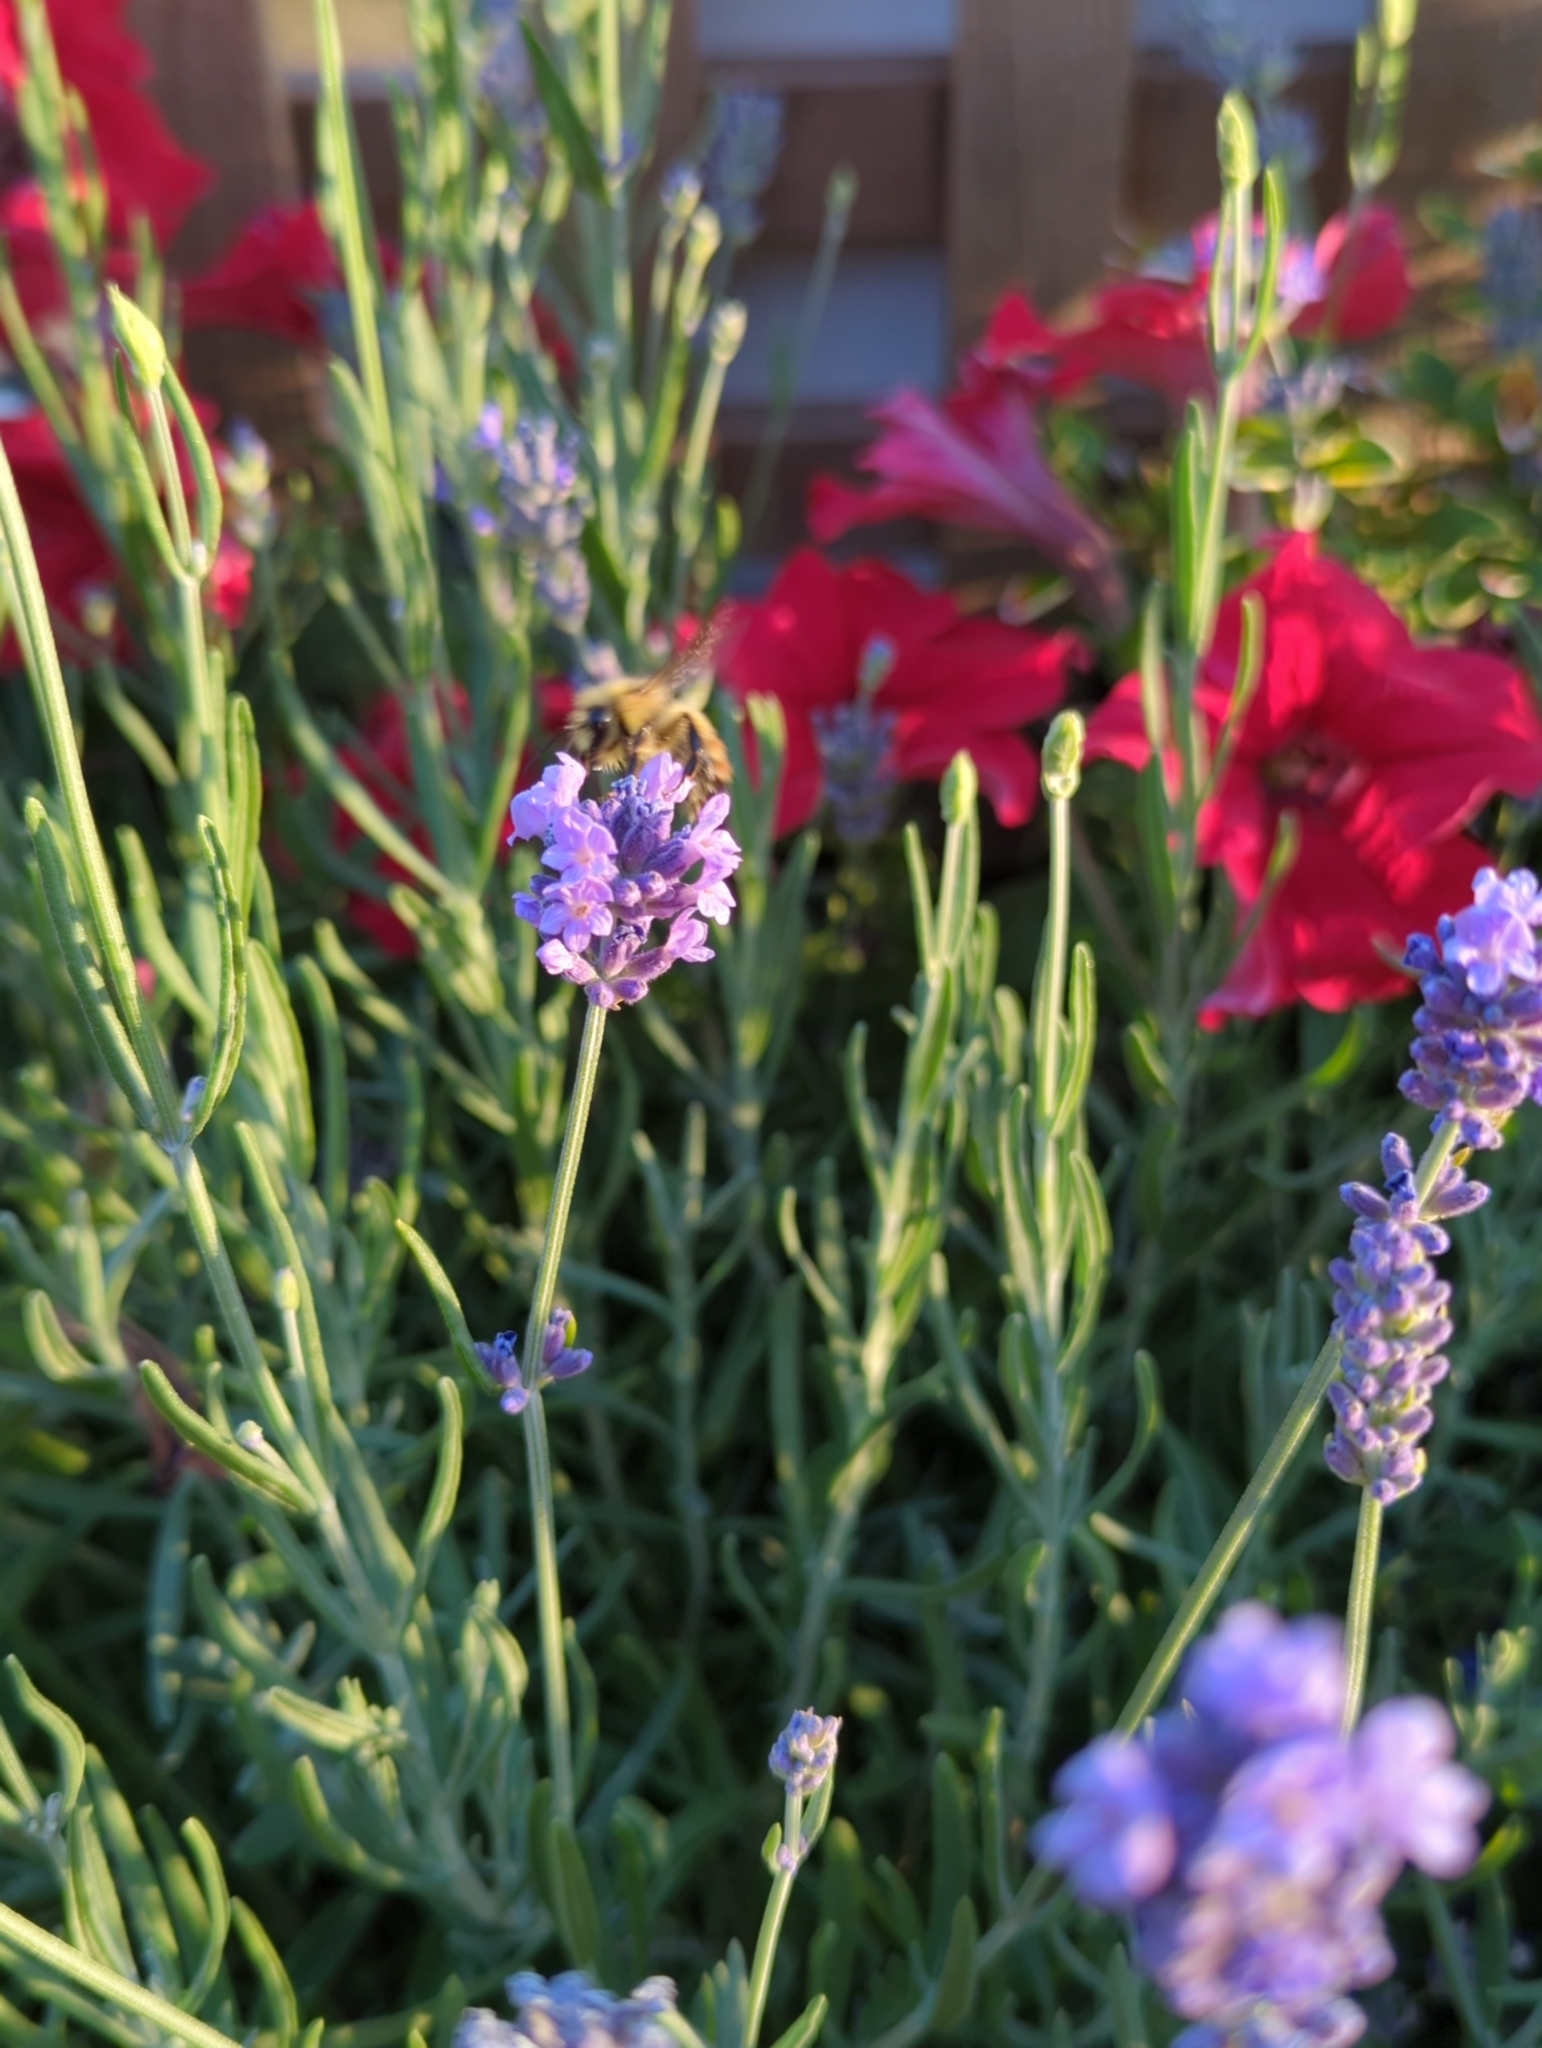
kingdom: Animalia
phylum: Arthropoda
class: Insecta
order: Hymenoptera
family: Apidae
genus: Bombus
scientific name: Bombus flavifrons
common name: Yellow head bumble bee
